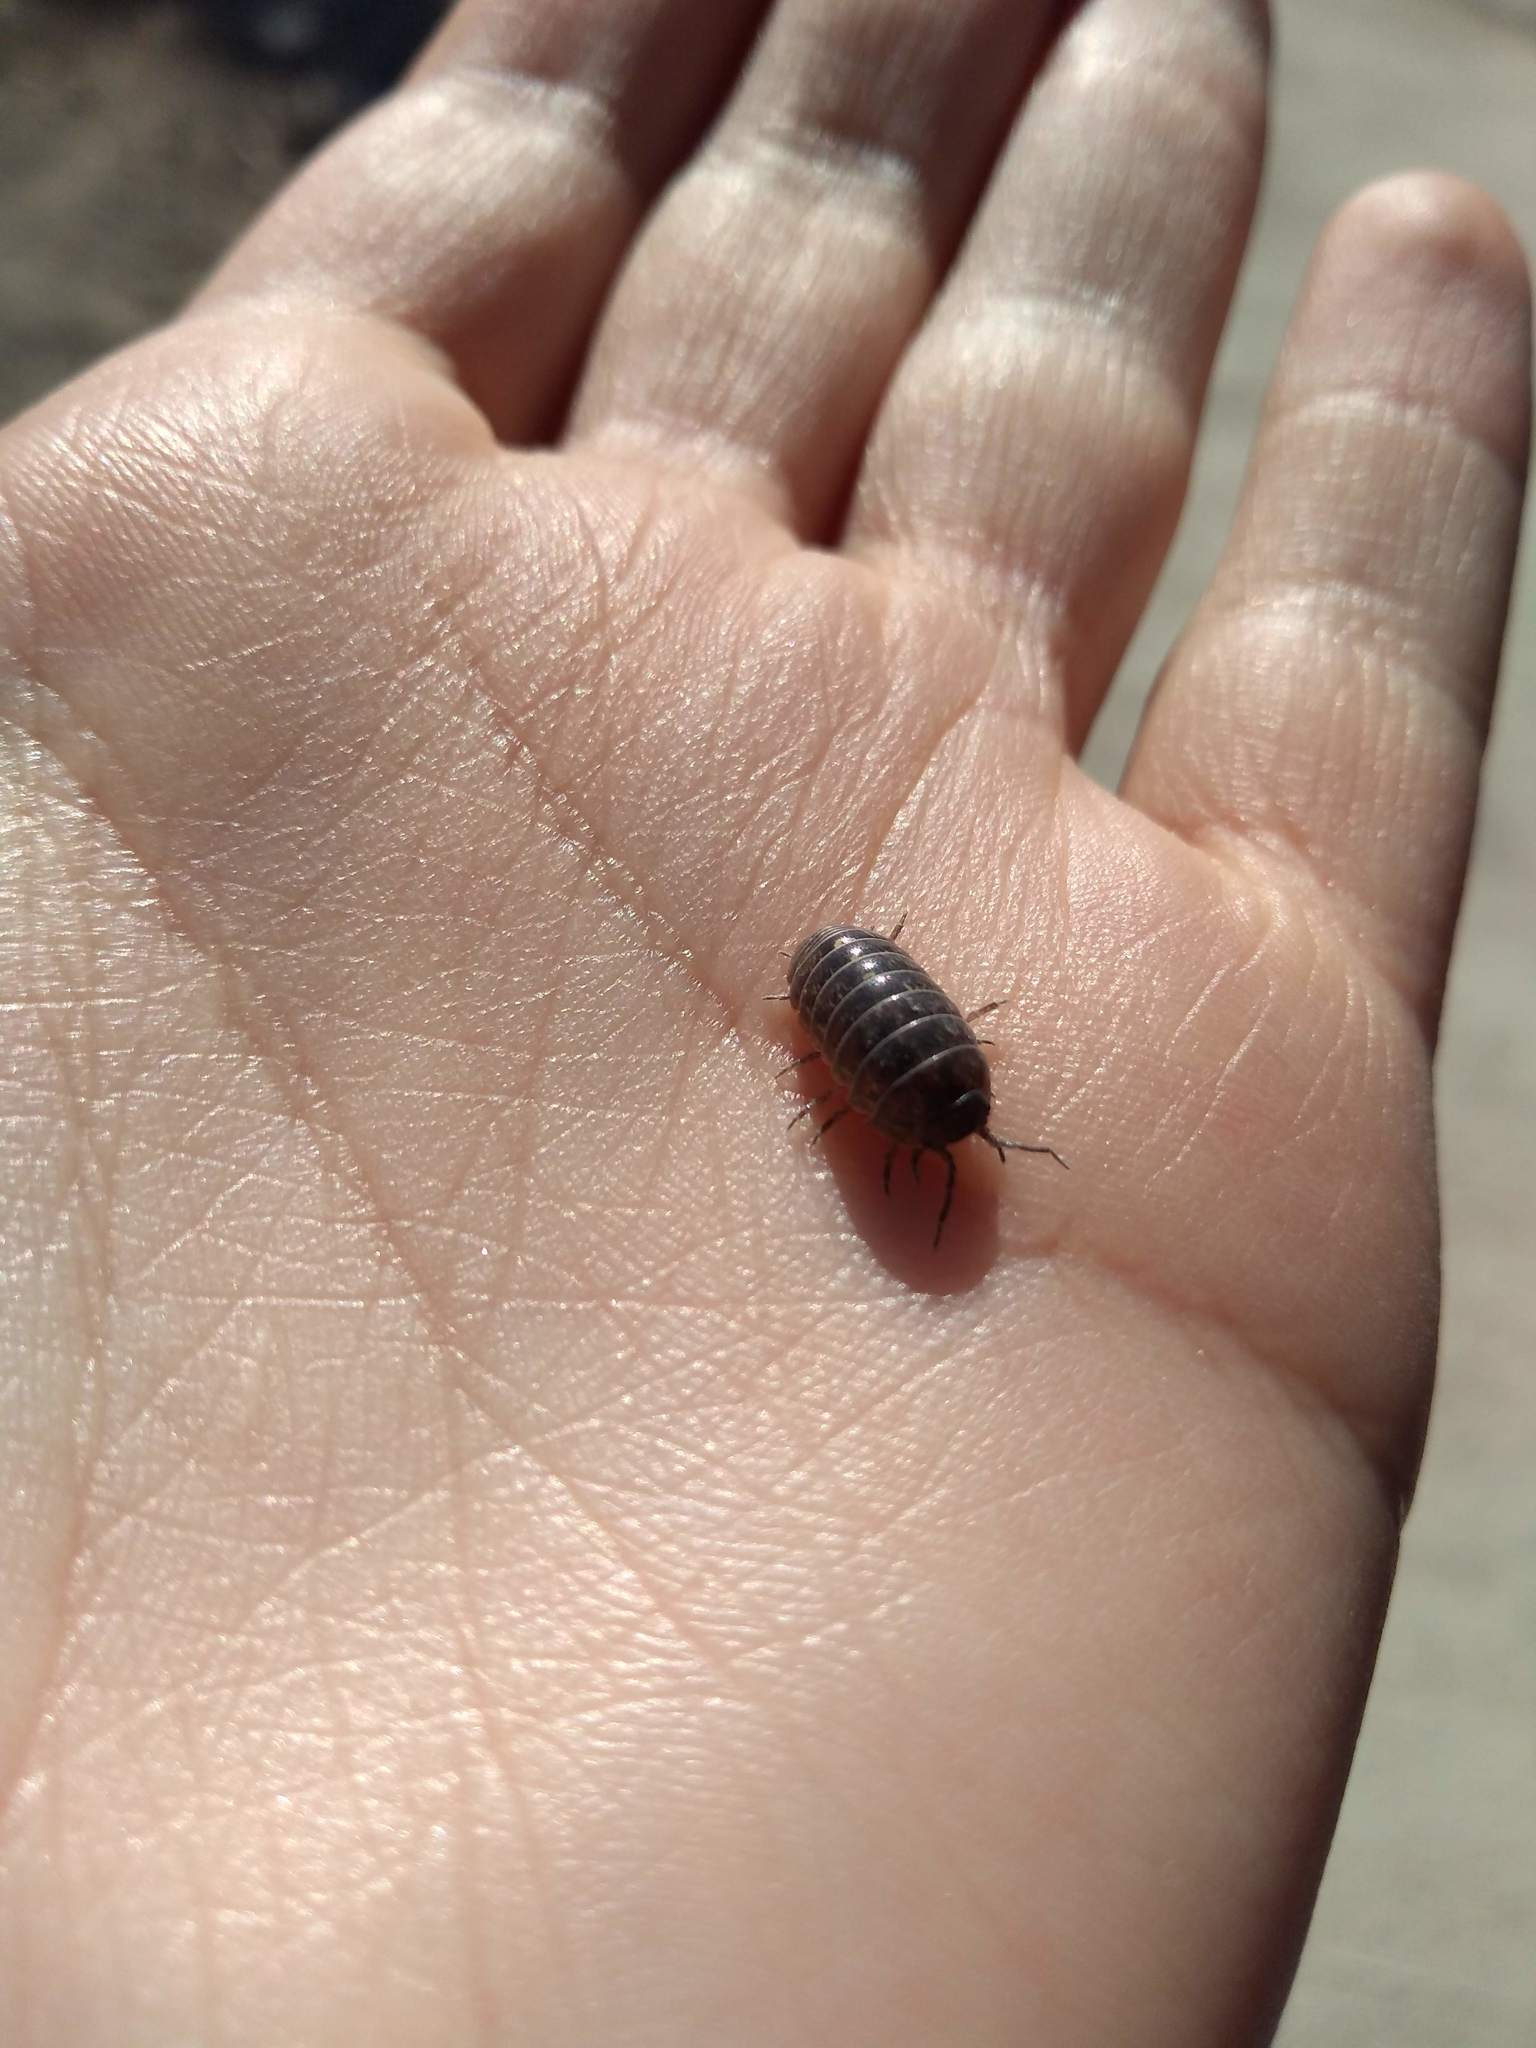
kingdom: Animalia
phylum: Arthropoda
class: Malacostraca
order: Isopoda
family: Armadillidiidae
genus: Armadillidium
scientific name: Armadillidium vulgare
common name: Common pill woodlouse
